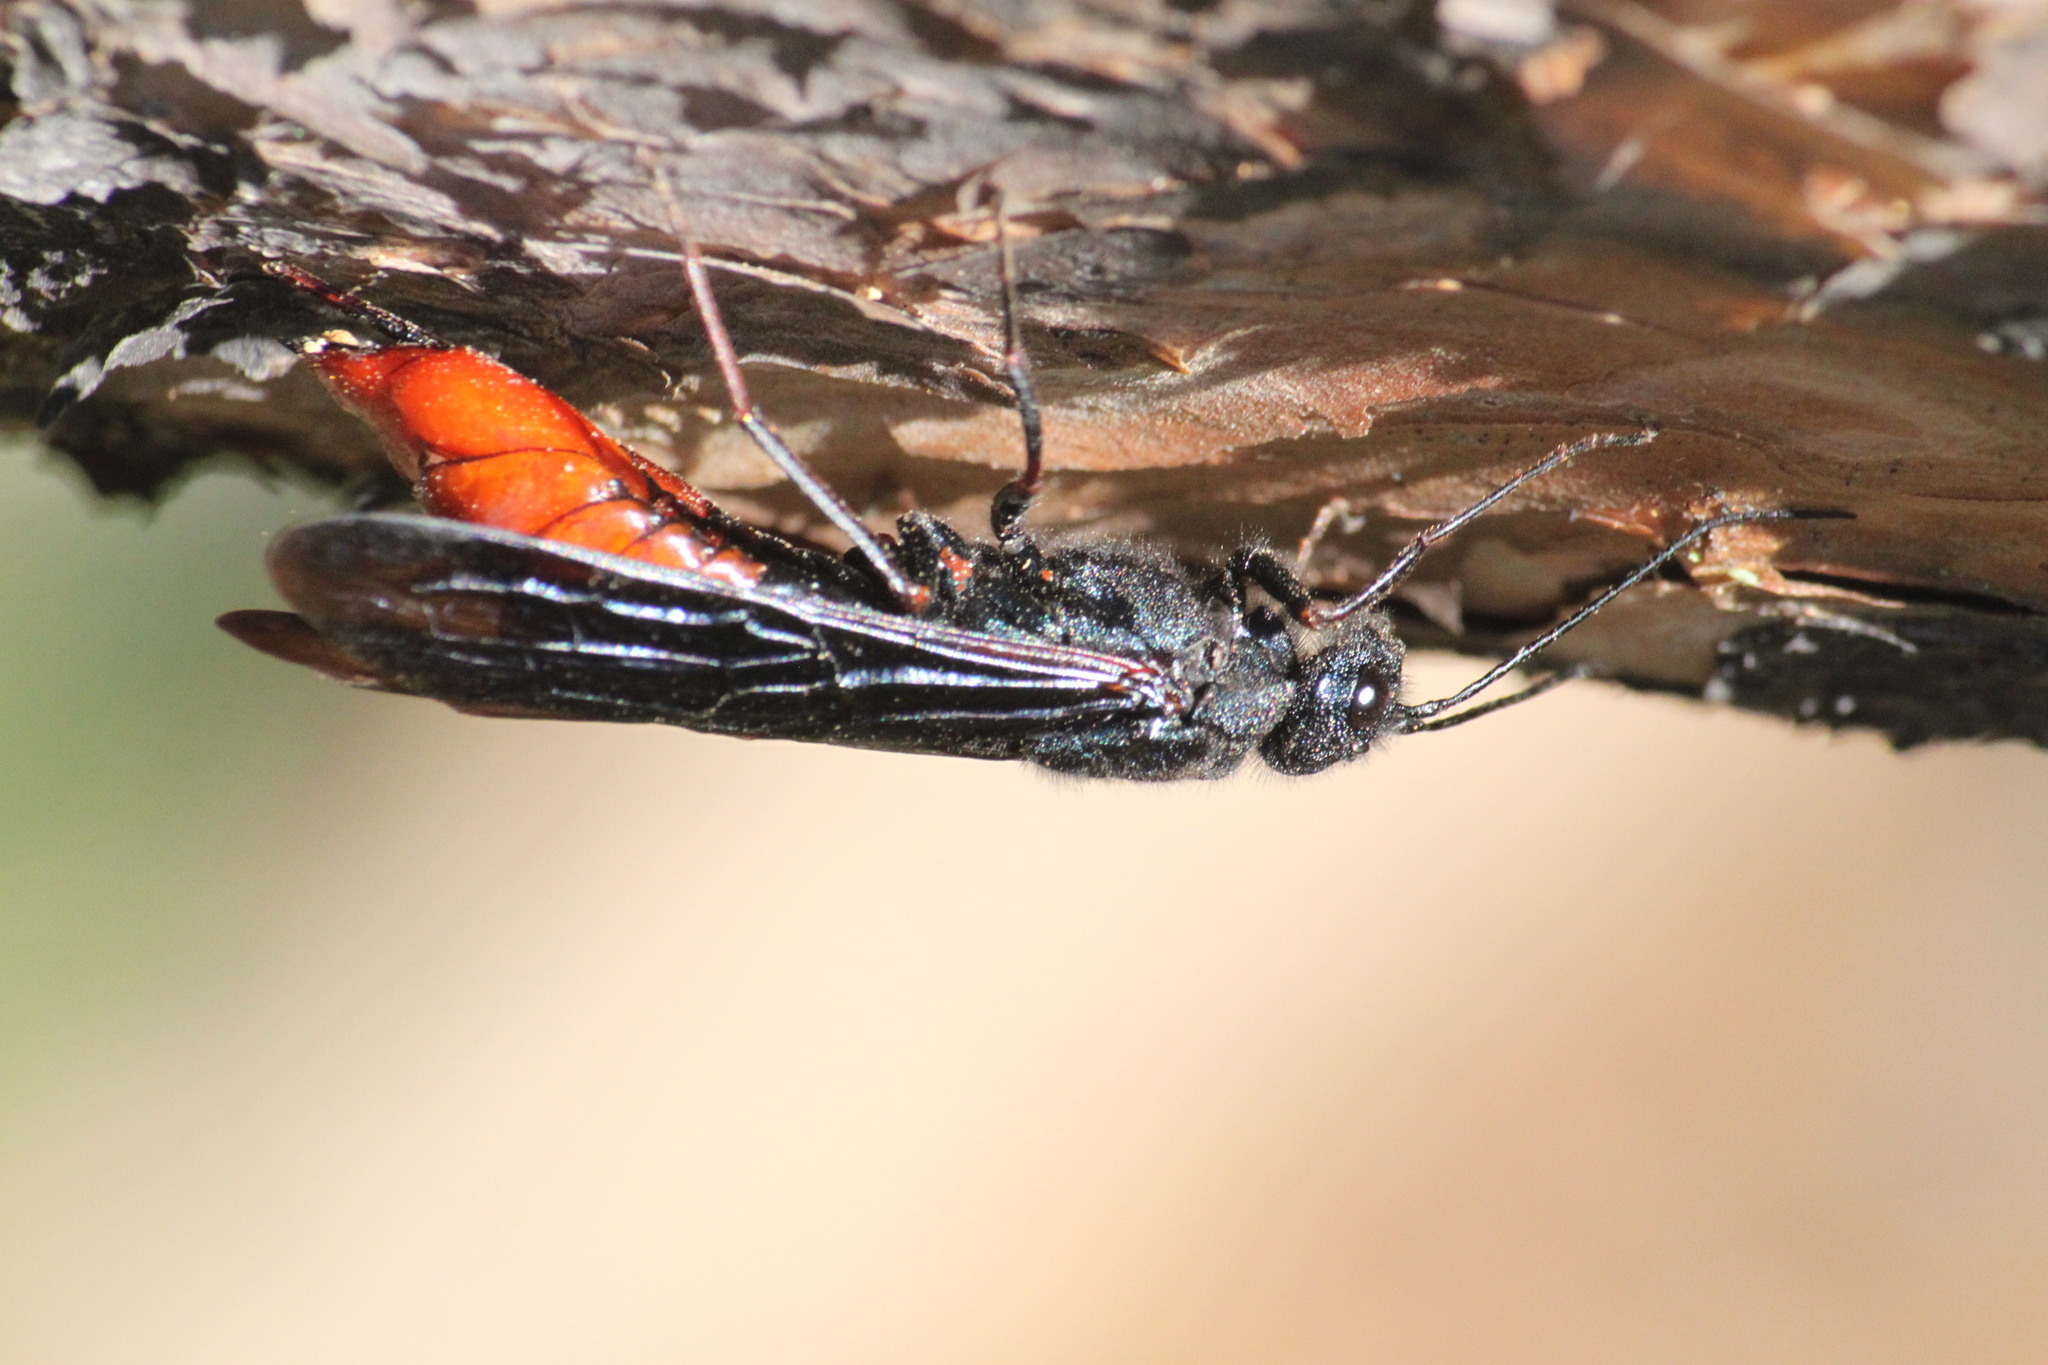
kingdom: Animalia
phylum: Arthropoda
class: Insecta
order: Hymenoptera
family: Siricidae
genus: Sirex
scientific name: Sirex juvencus
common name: Blue horntail
